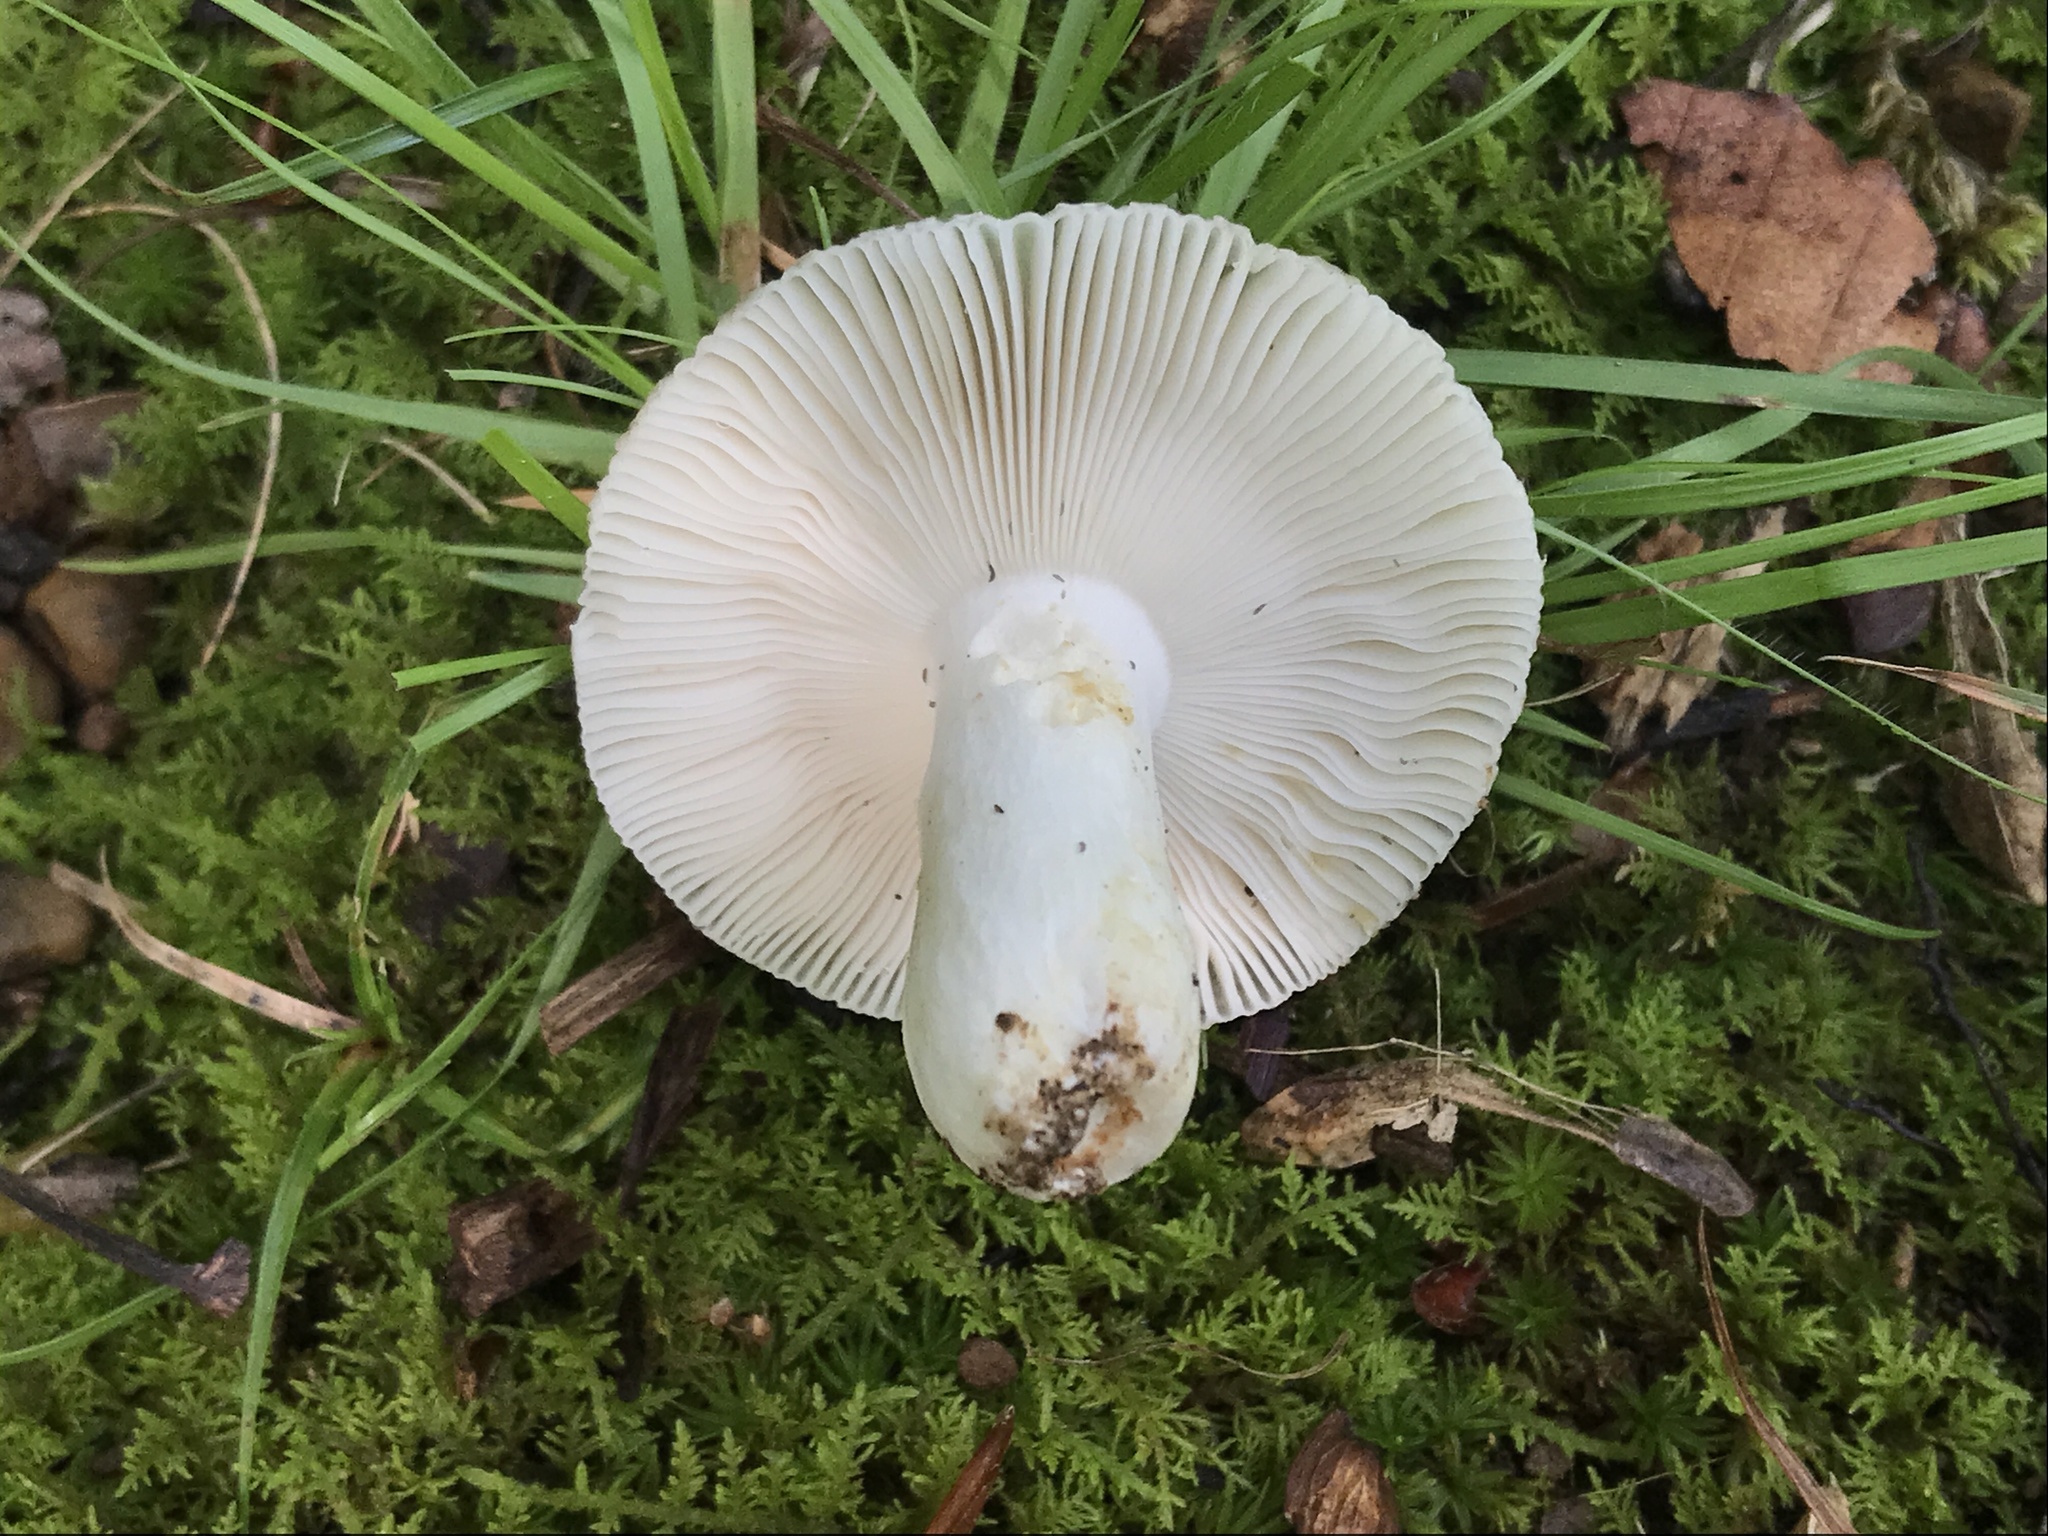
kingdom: Fungi
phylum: Basidiomycota
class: Agaricomycetes
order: Russulales
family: Russulaceae
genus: Russula
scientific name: Russula parvovirescens
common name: Blue-green cracking russula
